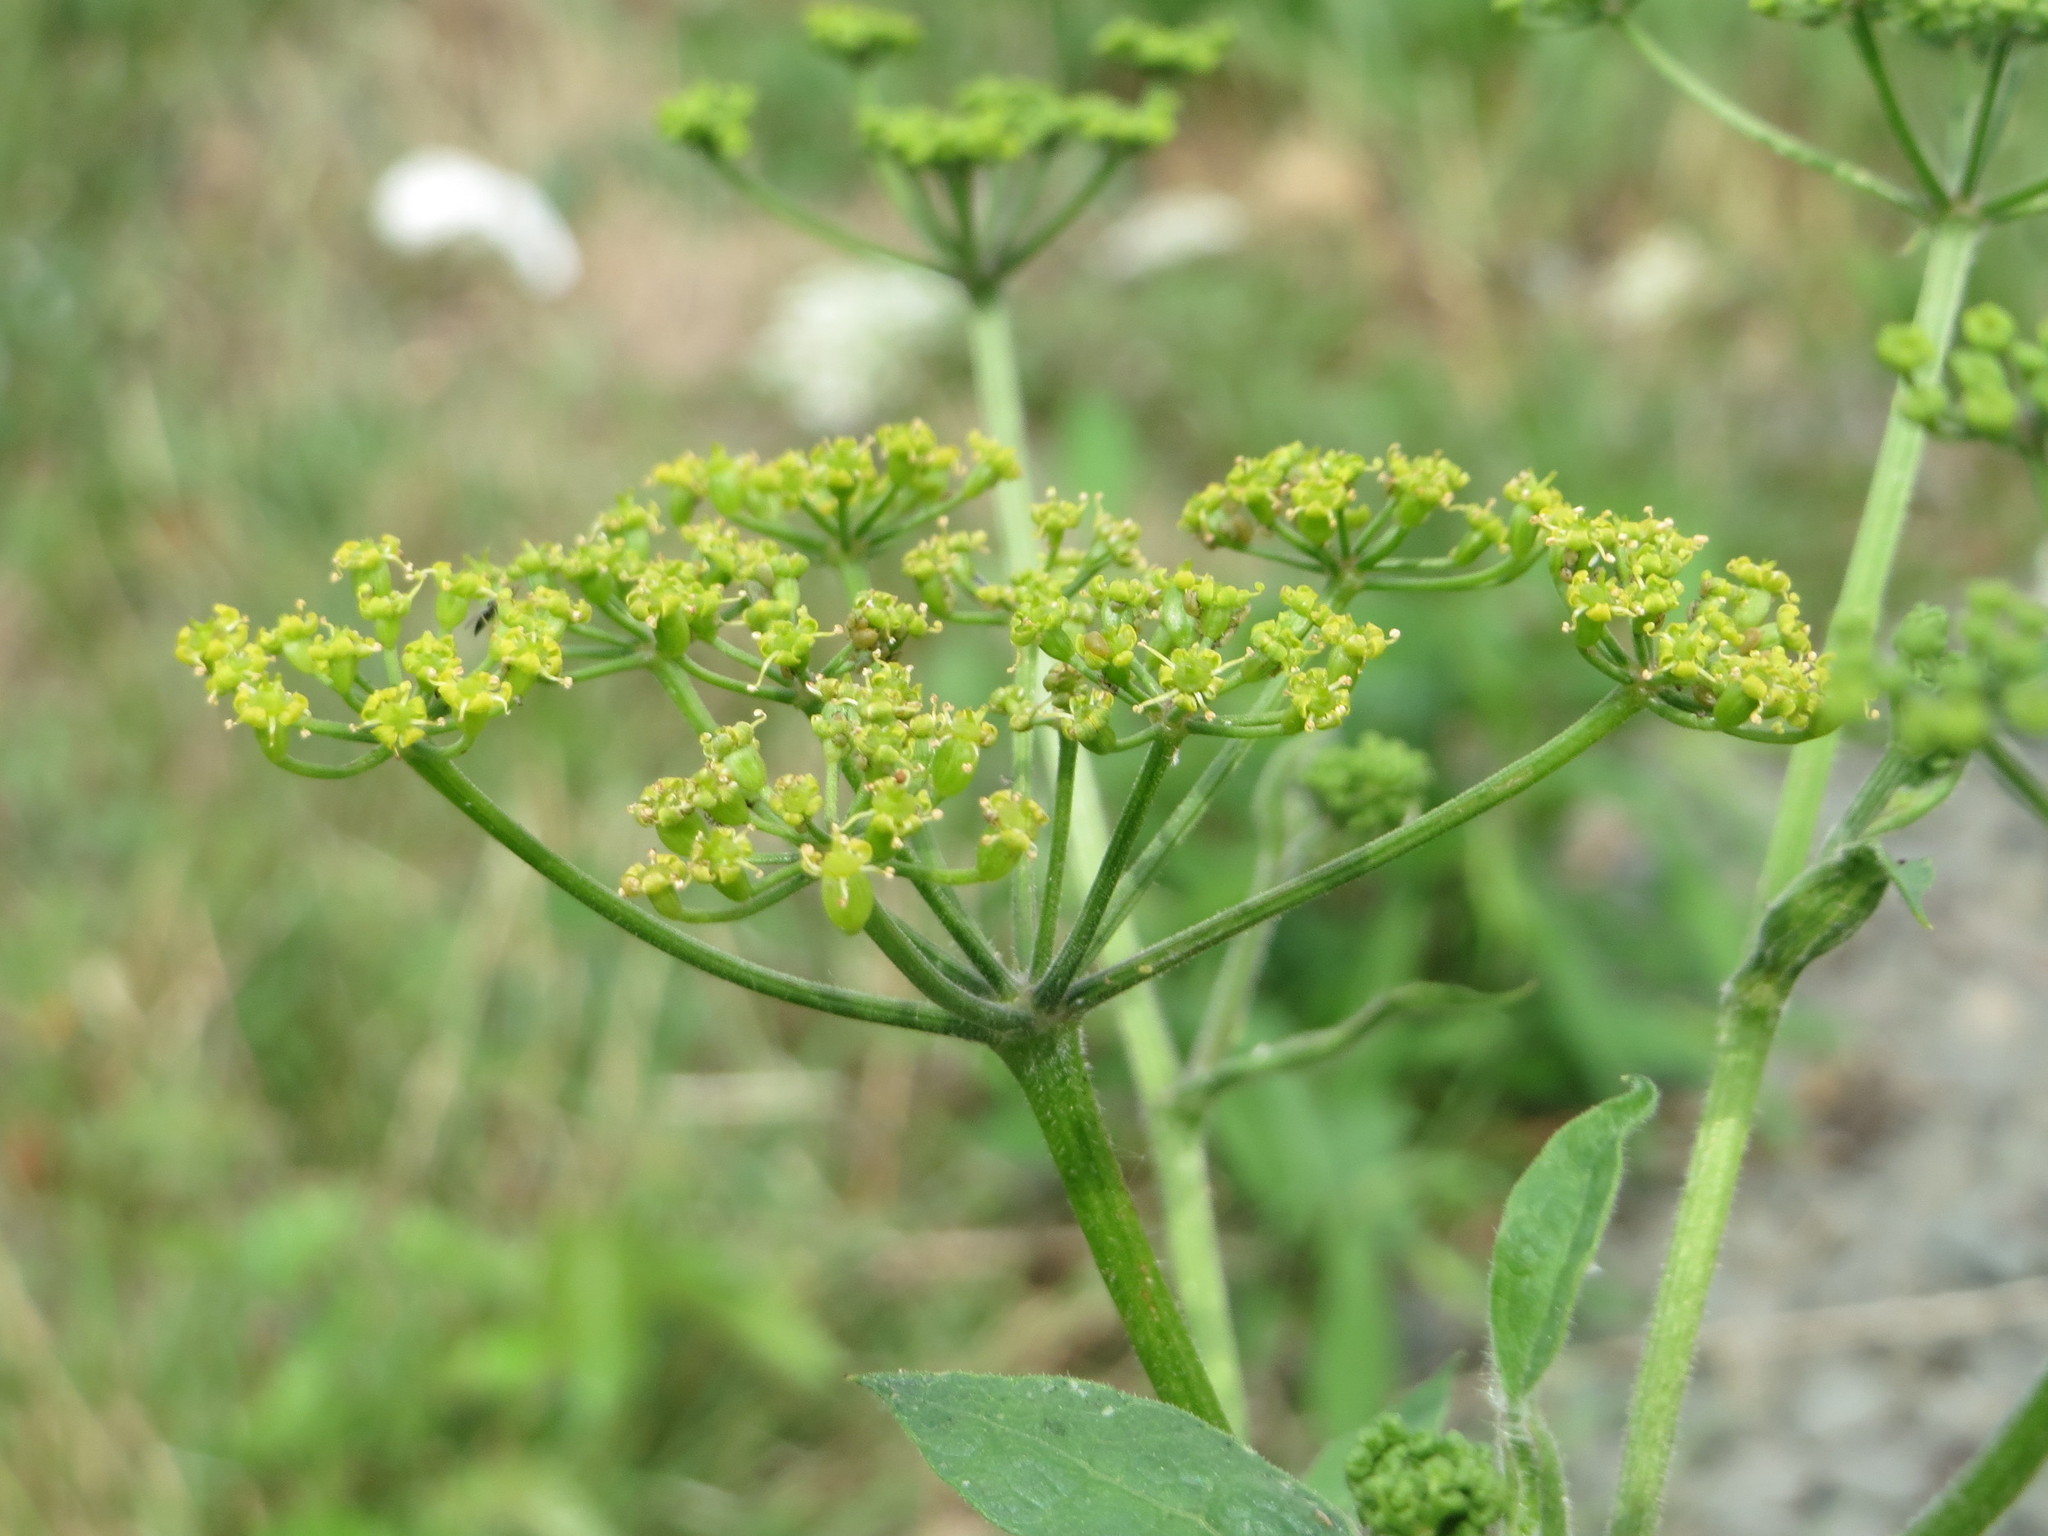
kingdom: Plantae
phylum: Tracheophyta
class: Magnoliopsida
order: Apiales
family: Apiaceae
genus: Pastinaca
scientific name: Pastinaca sativa
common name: Wild parsnip
